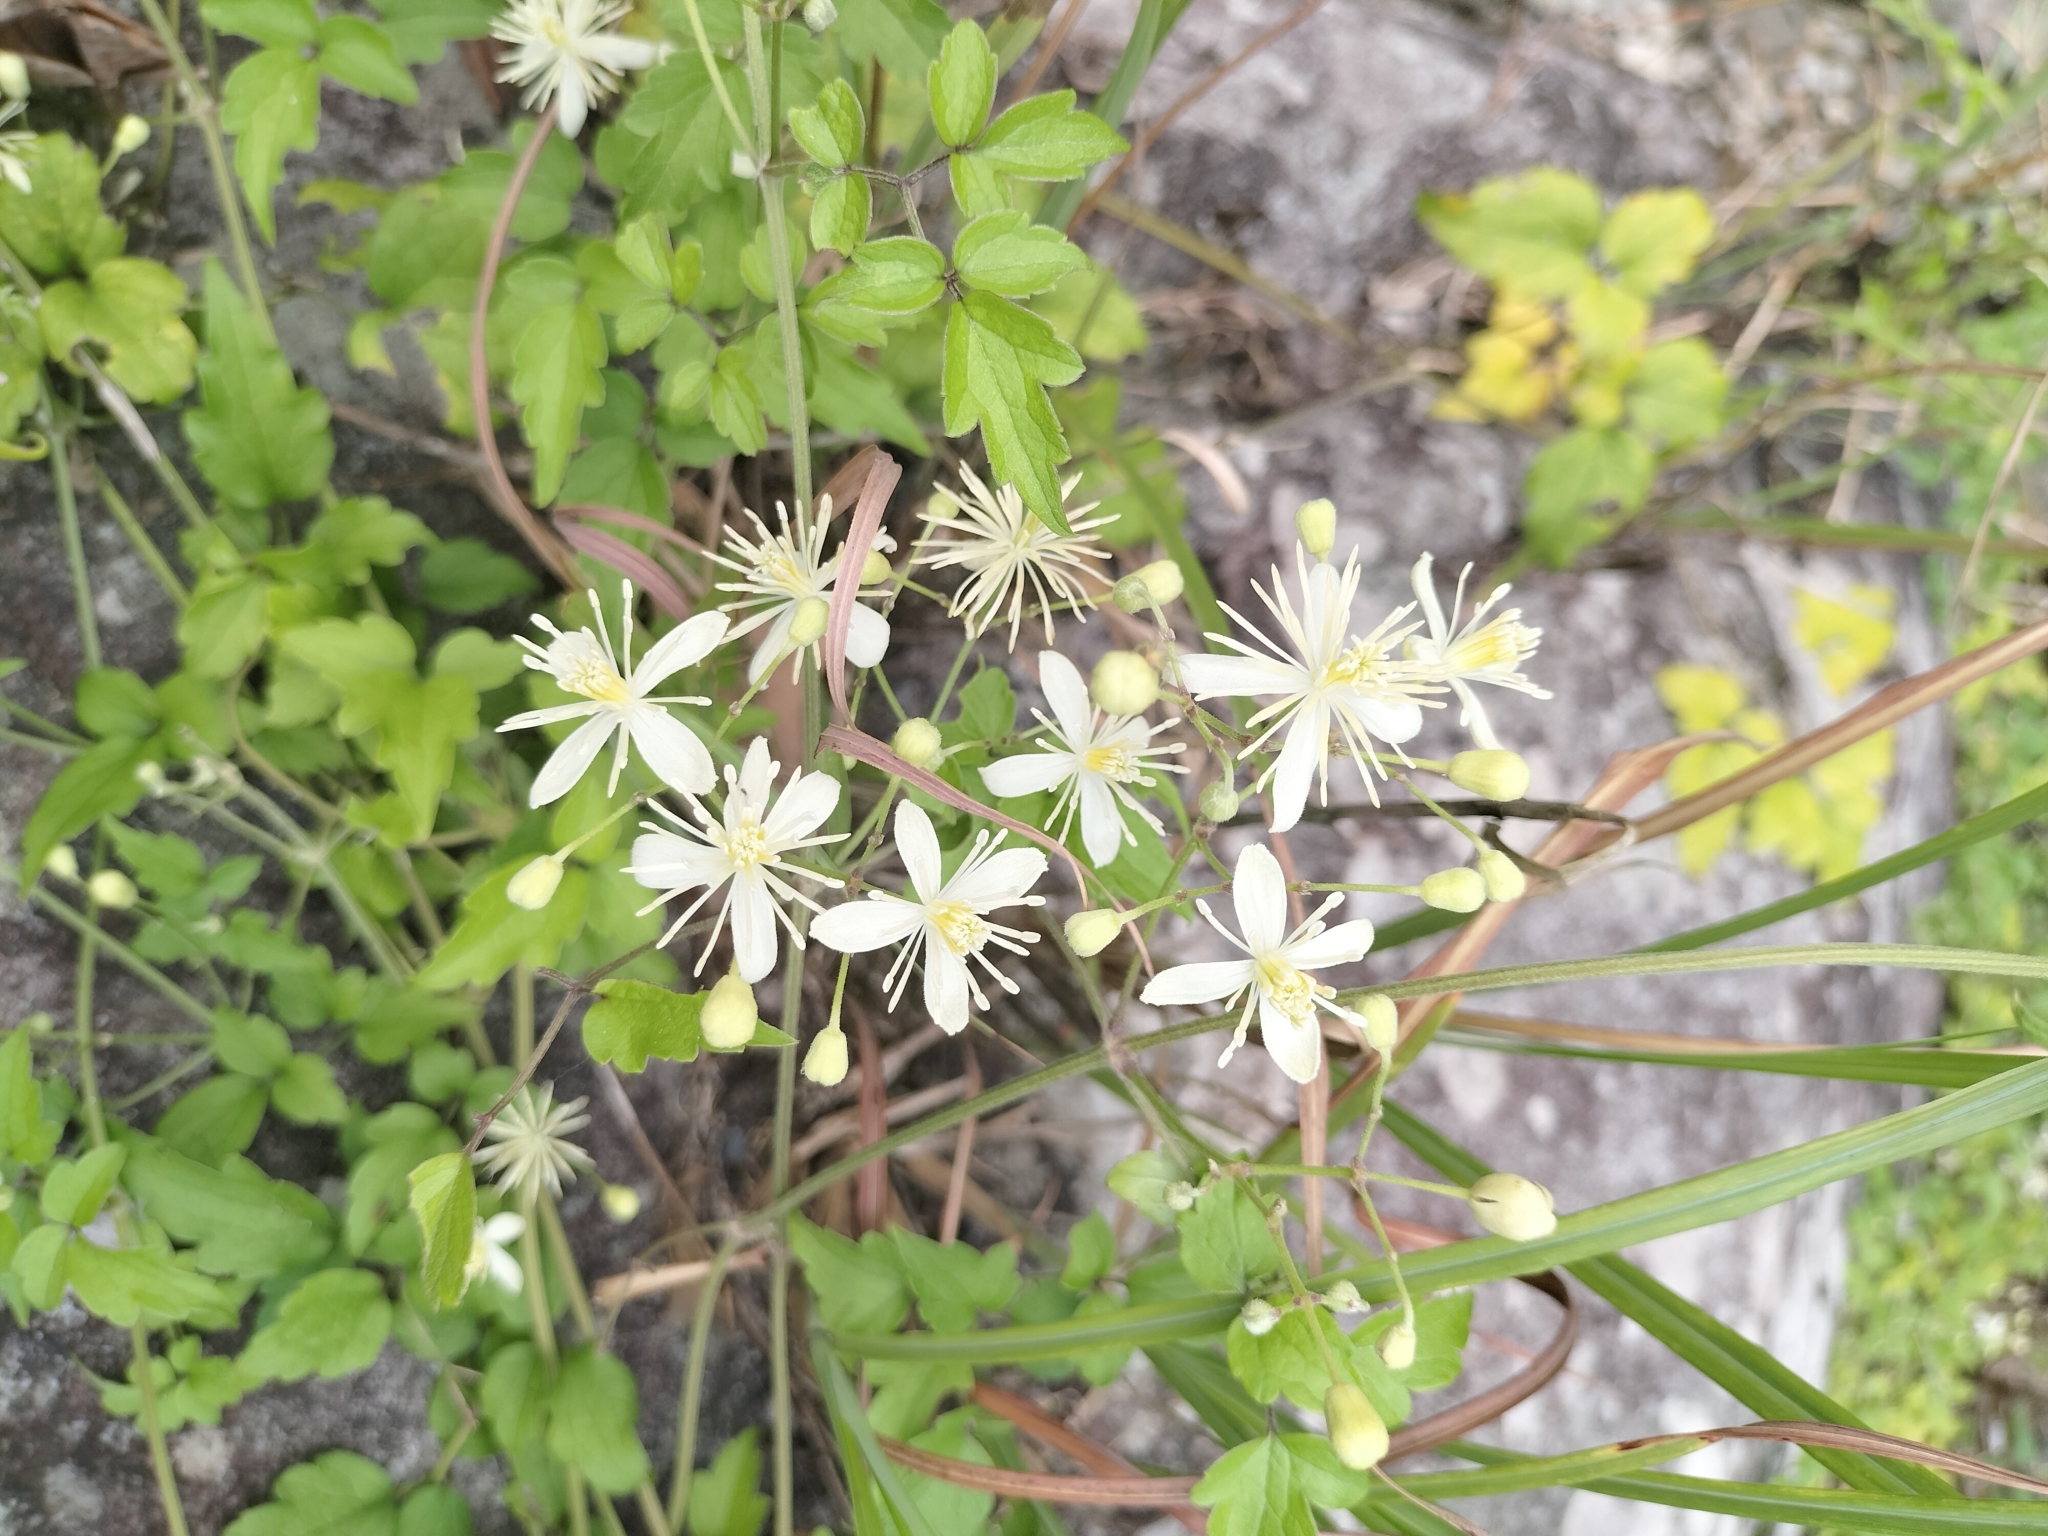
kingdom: Plantae
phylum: Tracheophyta
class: Magnoliopsida
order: Ranunculales
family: Ranunculaceae
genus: Clematis
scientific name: Clematis grata
